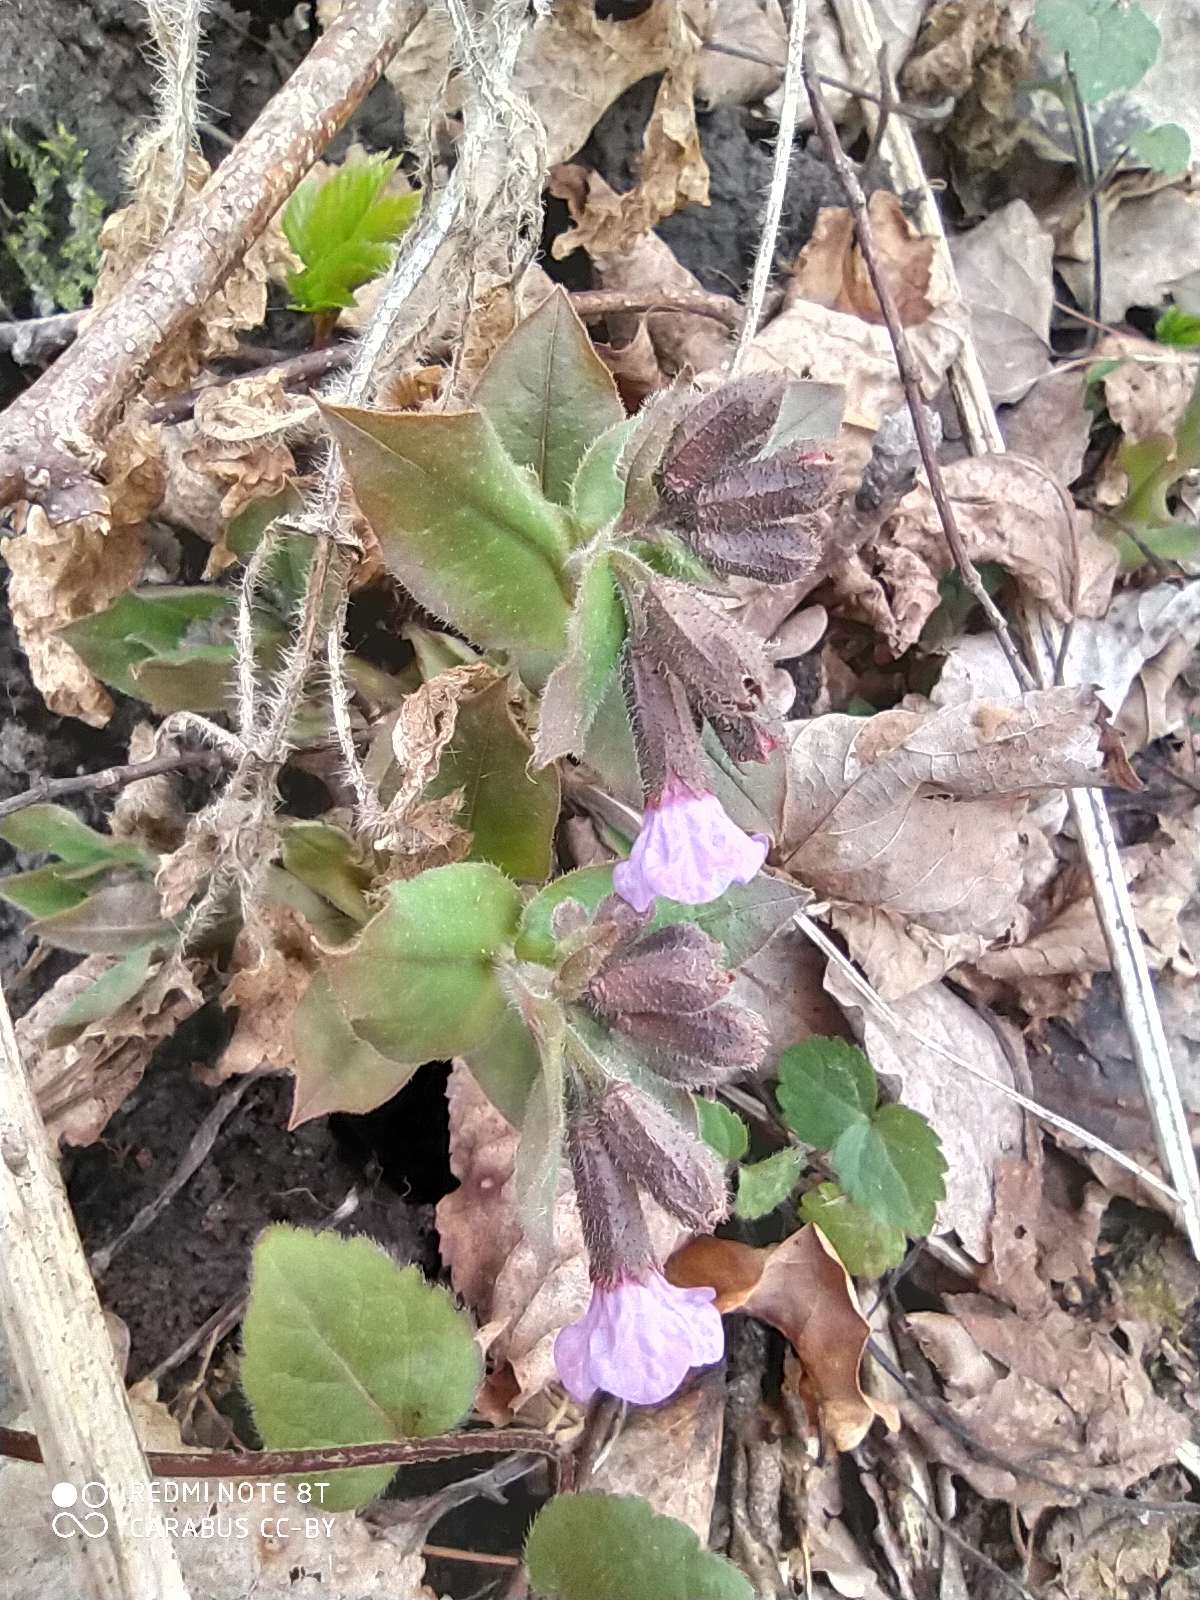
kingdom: Plantae
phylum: Tracheophyta
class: Magnoliopsida
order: Boraginales
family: Boraginaceae
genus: Pulmonaria
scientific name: Pulmonaria obscura
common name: Suffolk lungwort
